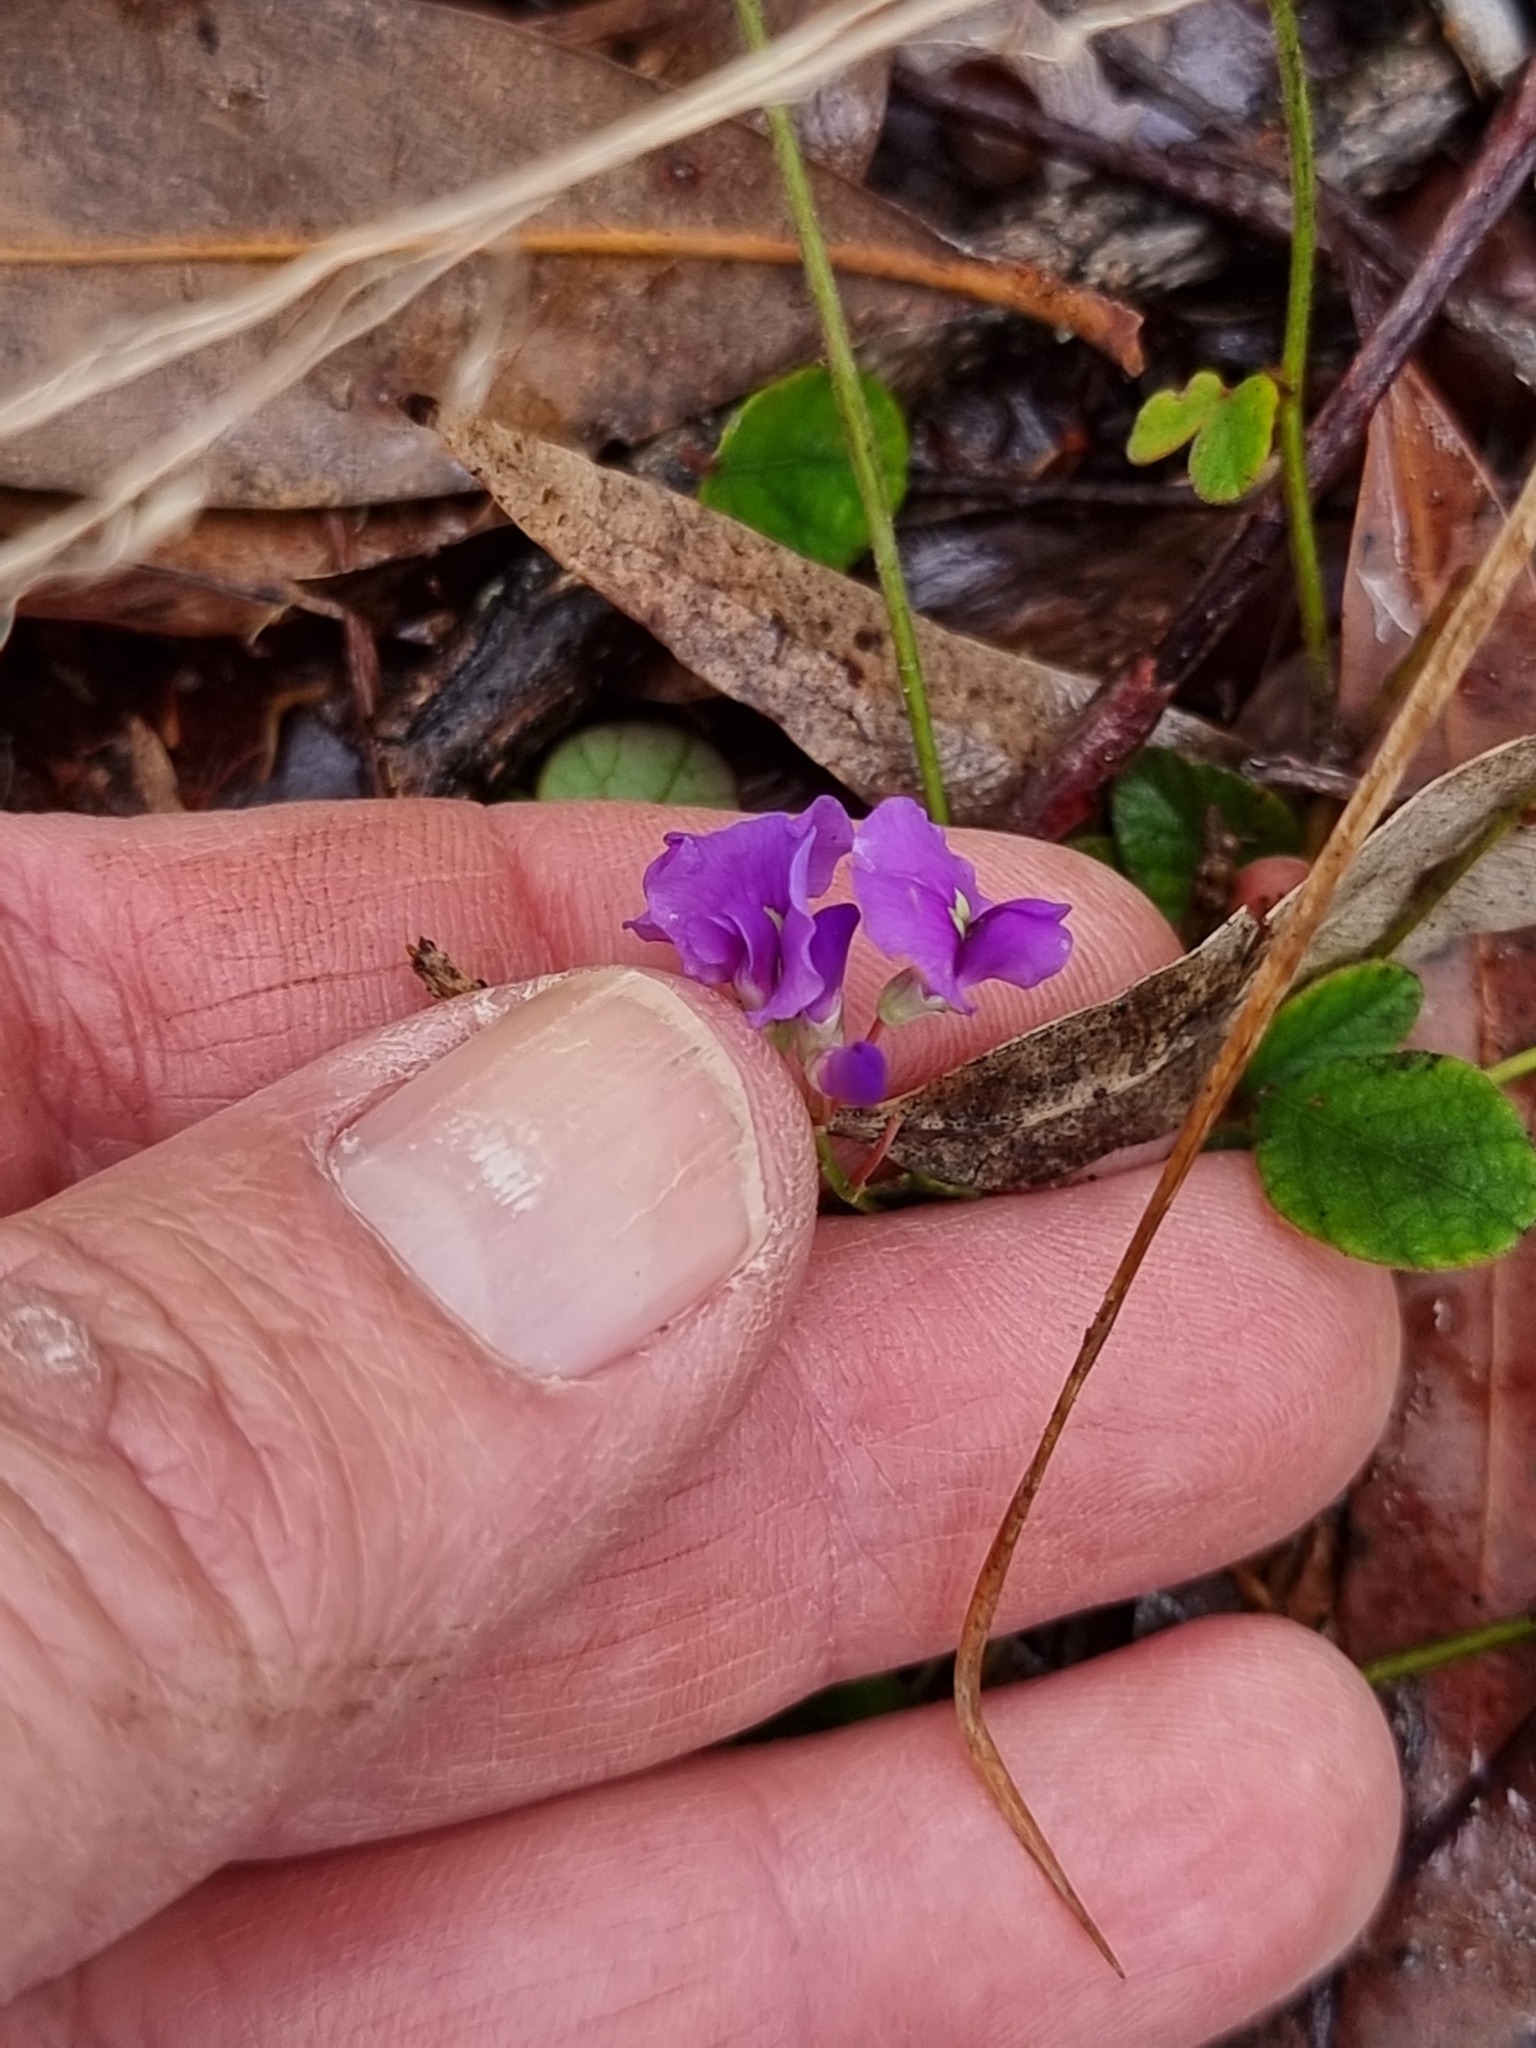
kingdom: Plantae
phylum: Tracheophyta
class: Magnoliopsida
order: Fabales
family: Fabaceae
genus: Maekawaea
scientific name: Maekawaea rhytidophylla
